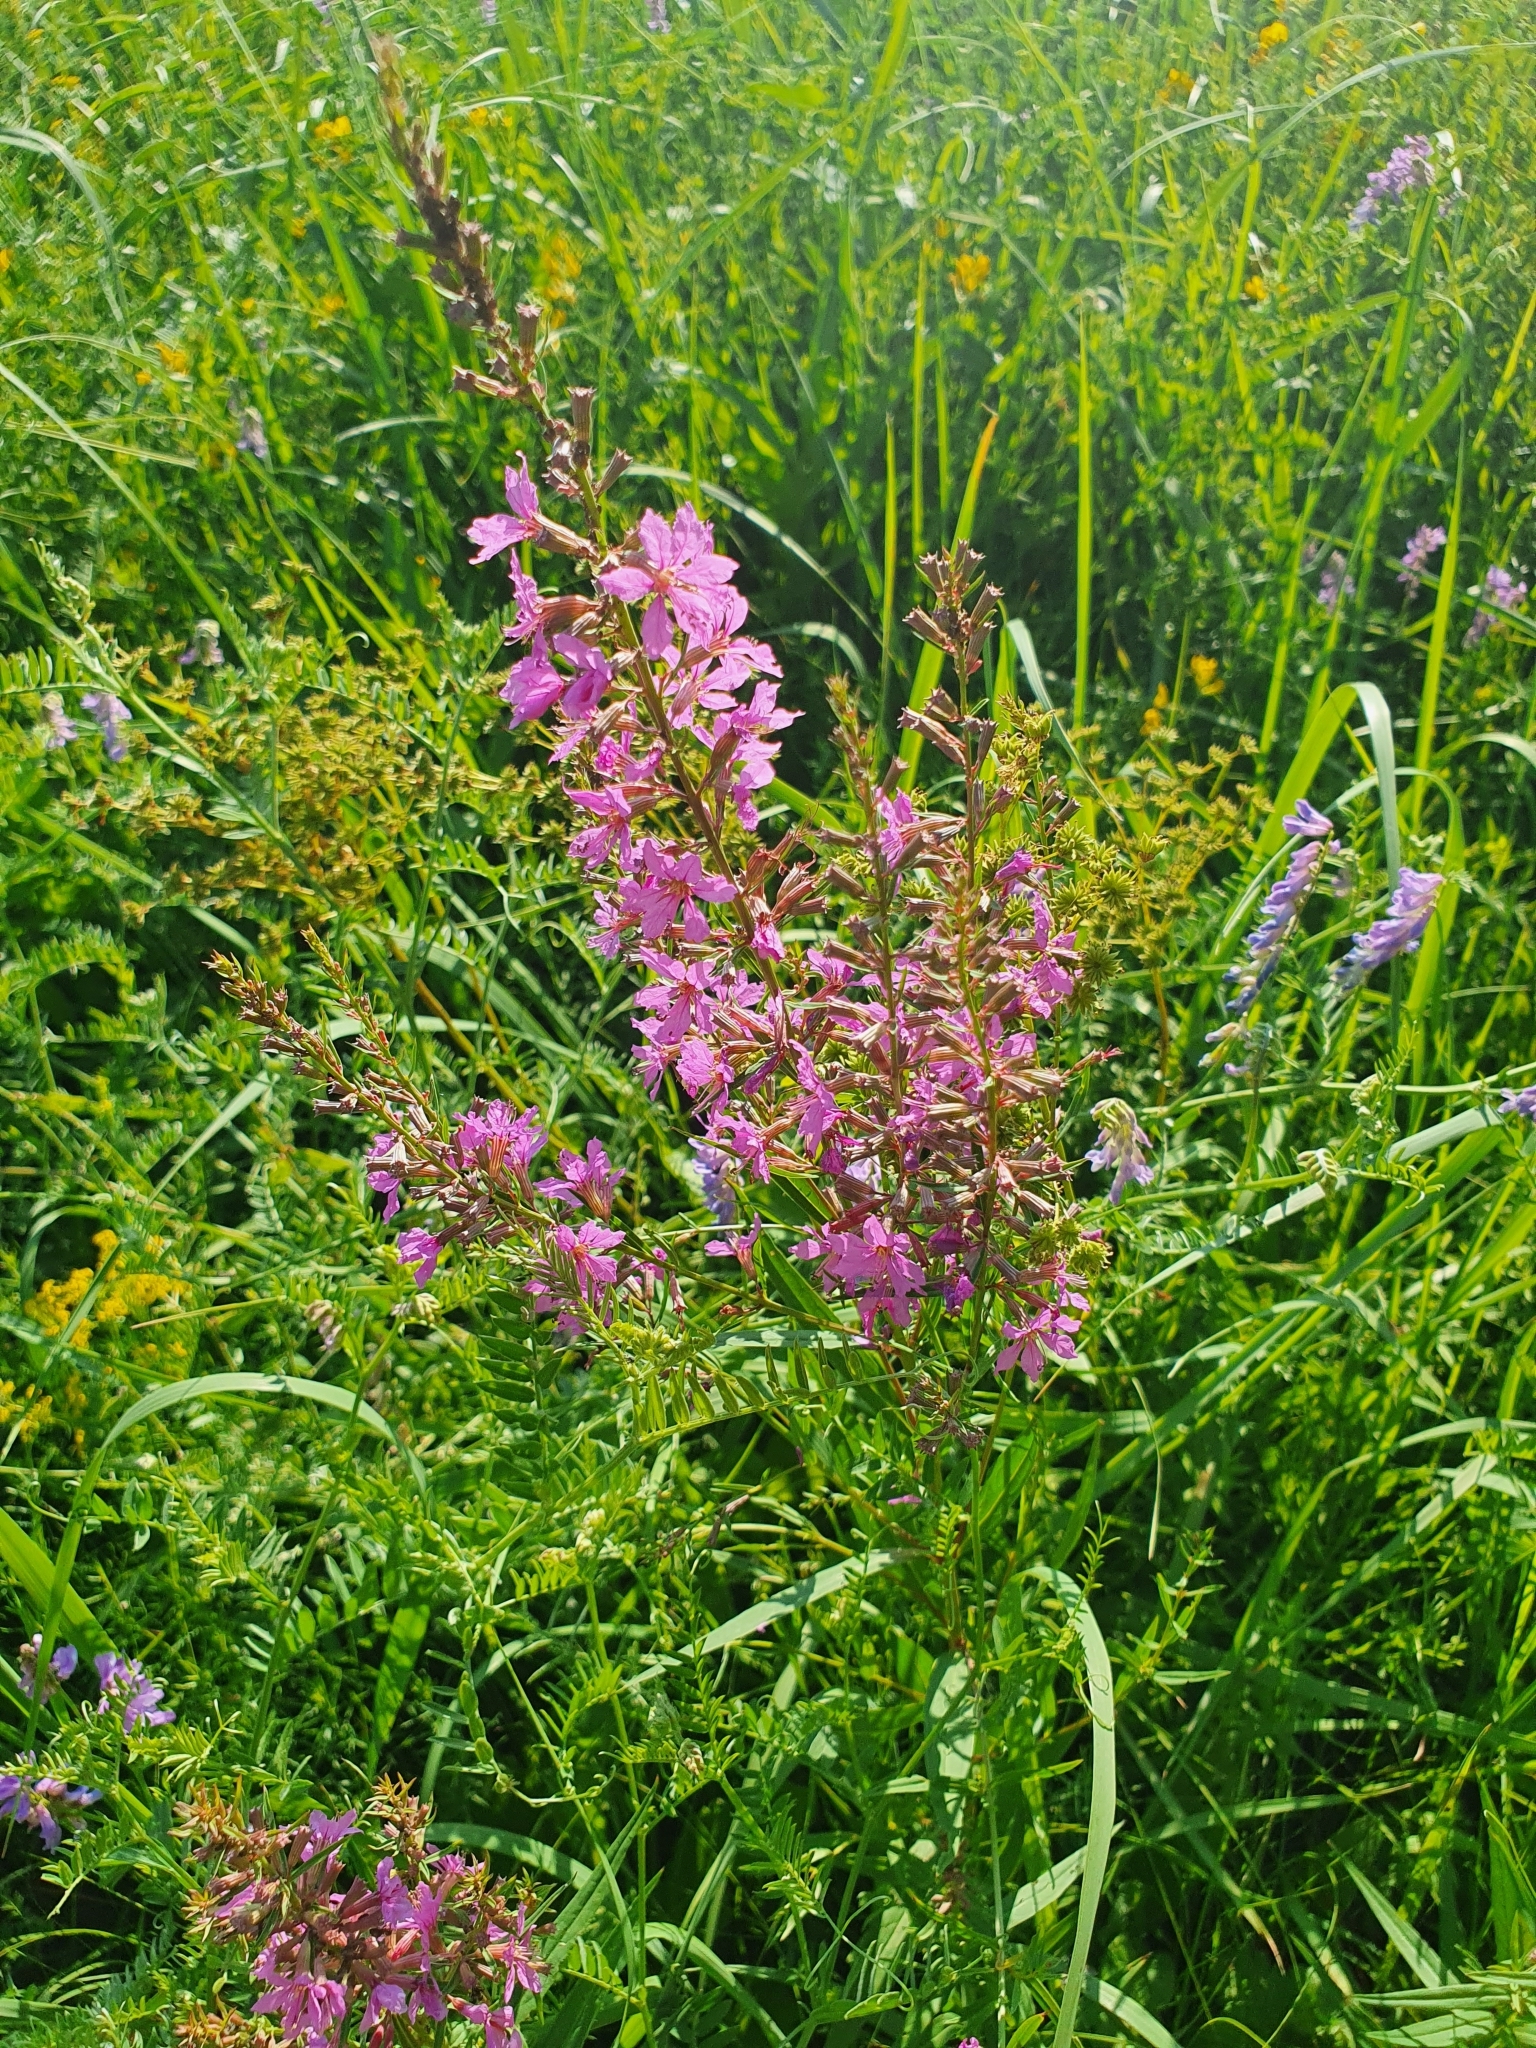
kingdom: Plantae
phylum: Tracheophyta
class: Magnoliopsida
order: Myrtales
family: Lythraceae
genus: Lythrum
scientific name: Lythrum salicaria
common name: Purple loosestrife
